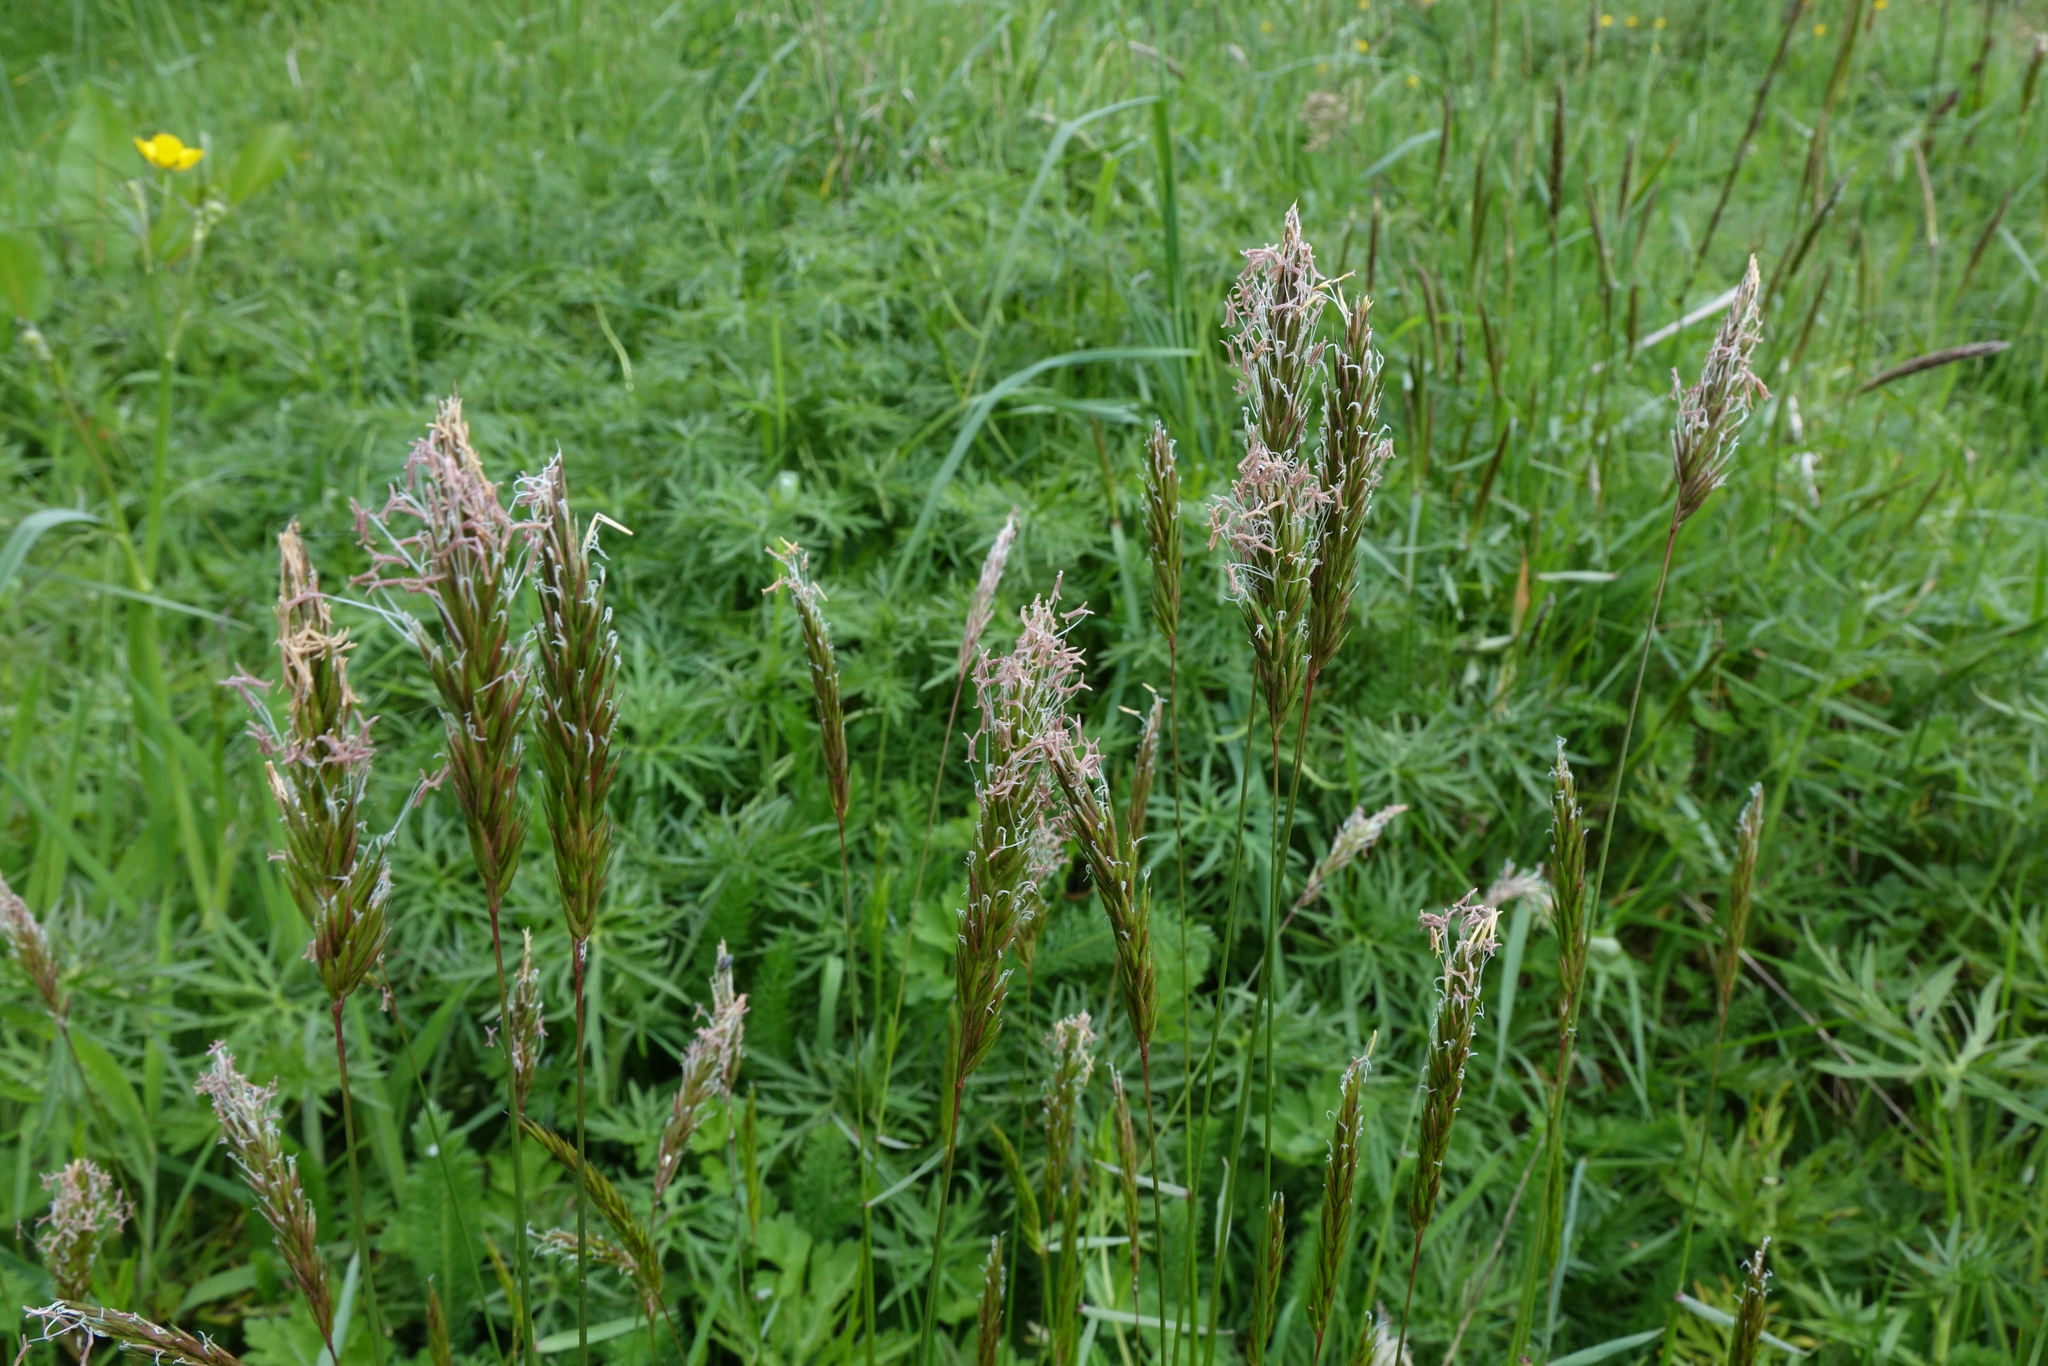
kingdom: Plantae
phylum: Tracheophyta
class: Liliopsida
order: Poales
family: Poaceae
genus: Anthoxanthum
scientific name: Anthoxanthum odoratum
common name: Sweet vernalgrass
